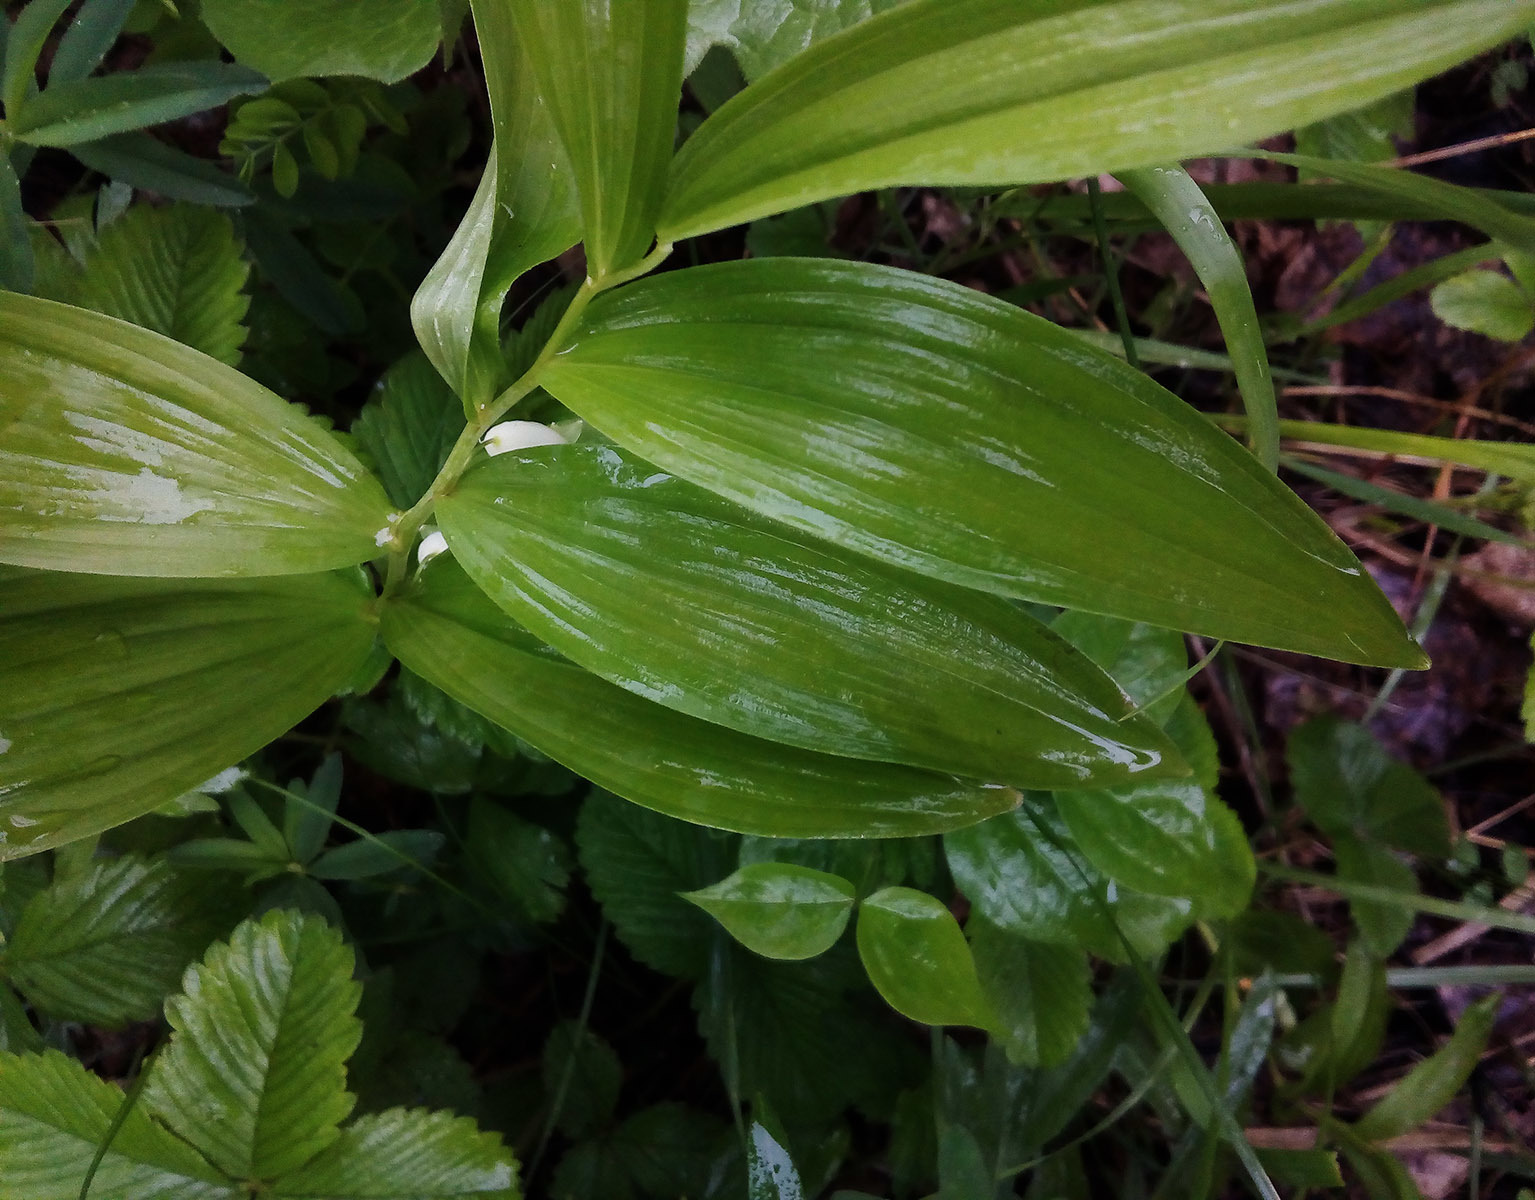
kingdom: Plantae
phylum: Tracheophyta
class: Liliopsida
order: Asparagales
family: Asparagaceae
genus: Polygonatum
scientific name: Polygonatum odoratum
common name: Angular solomon's-seal
